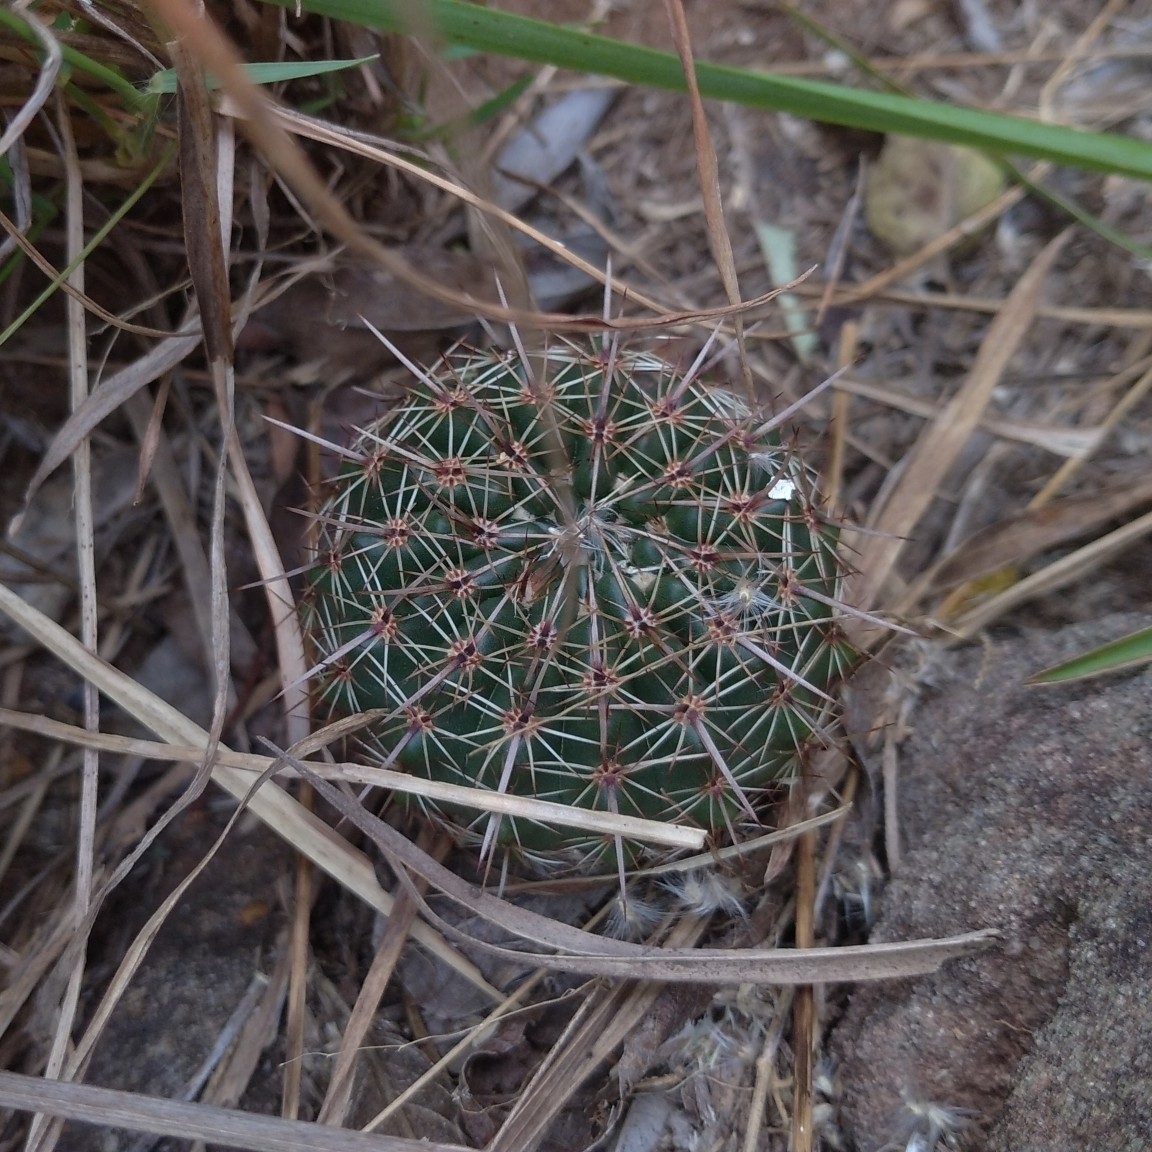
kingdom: Plantae
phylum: Tracheophyta
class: Magnoliopsida
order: Caryophyllales
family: Cactaceae
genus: Parodia
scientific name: Parodia mammulosa
